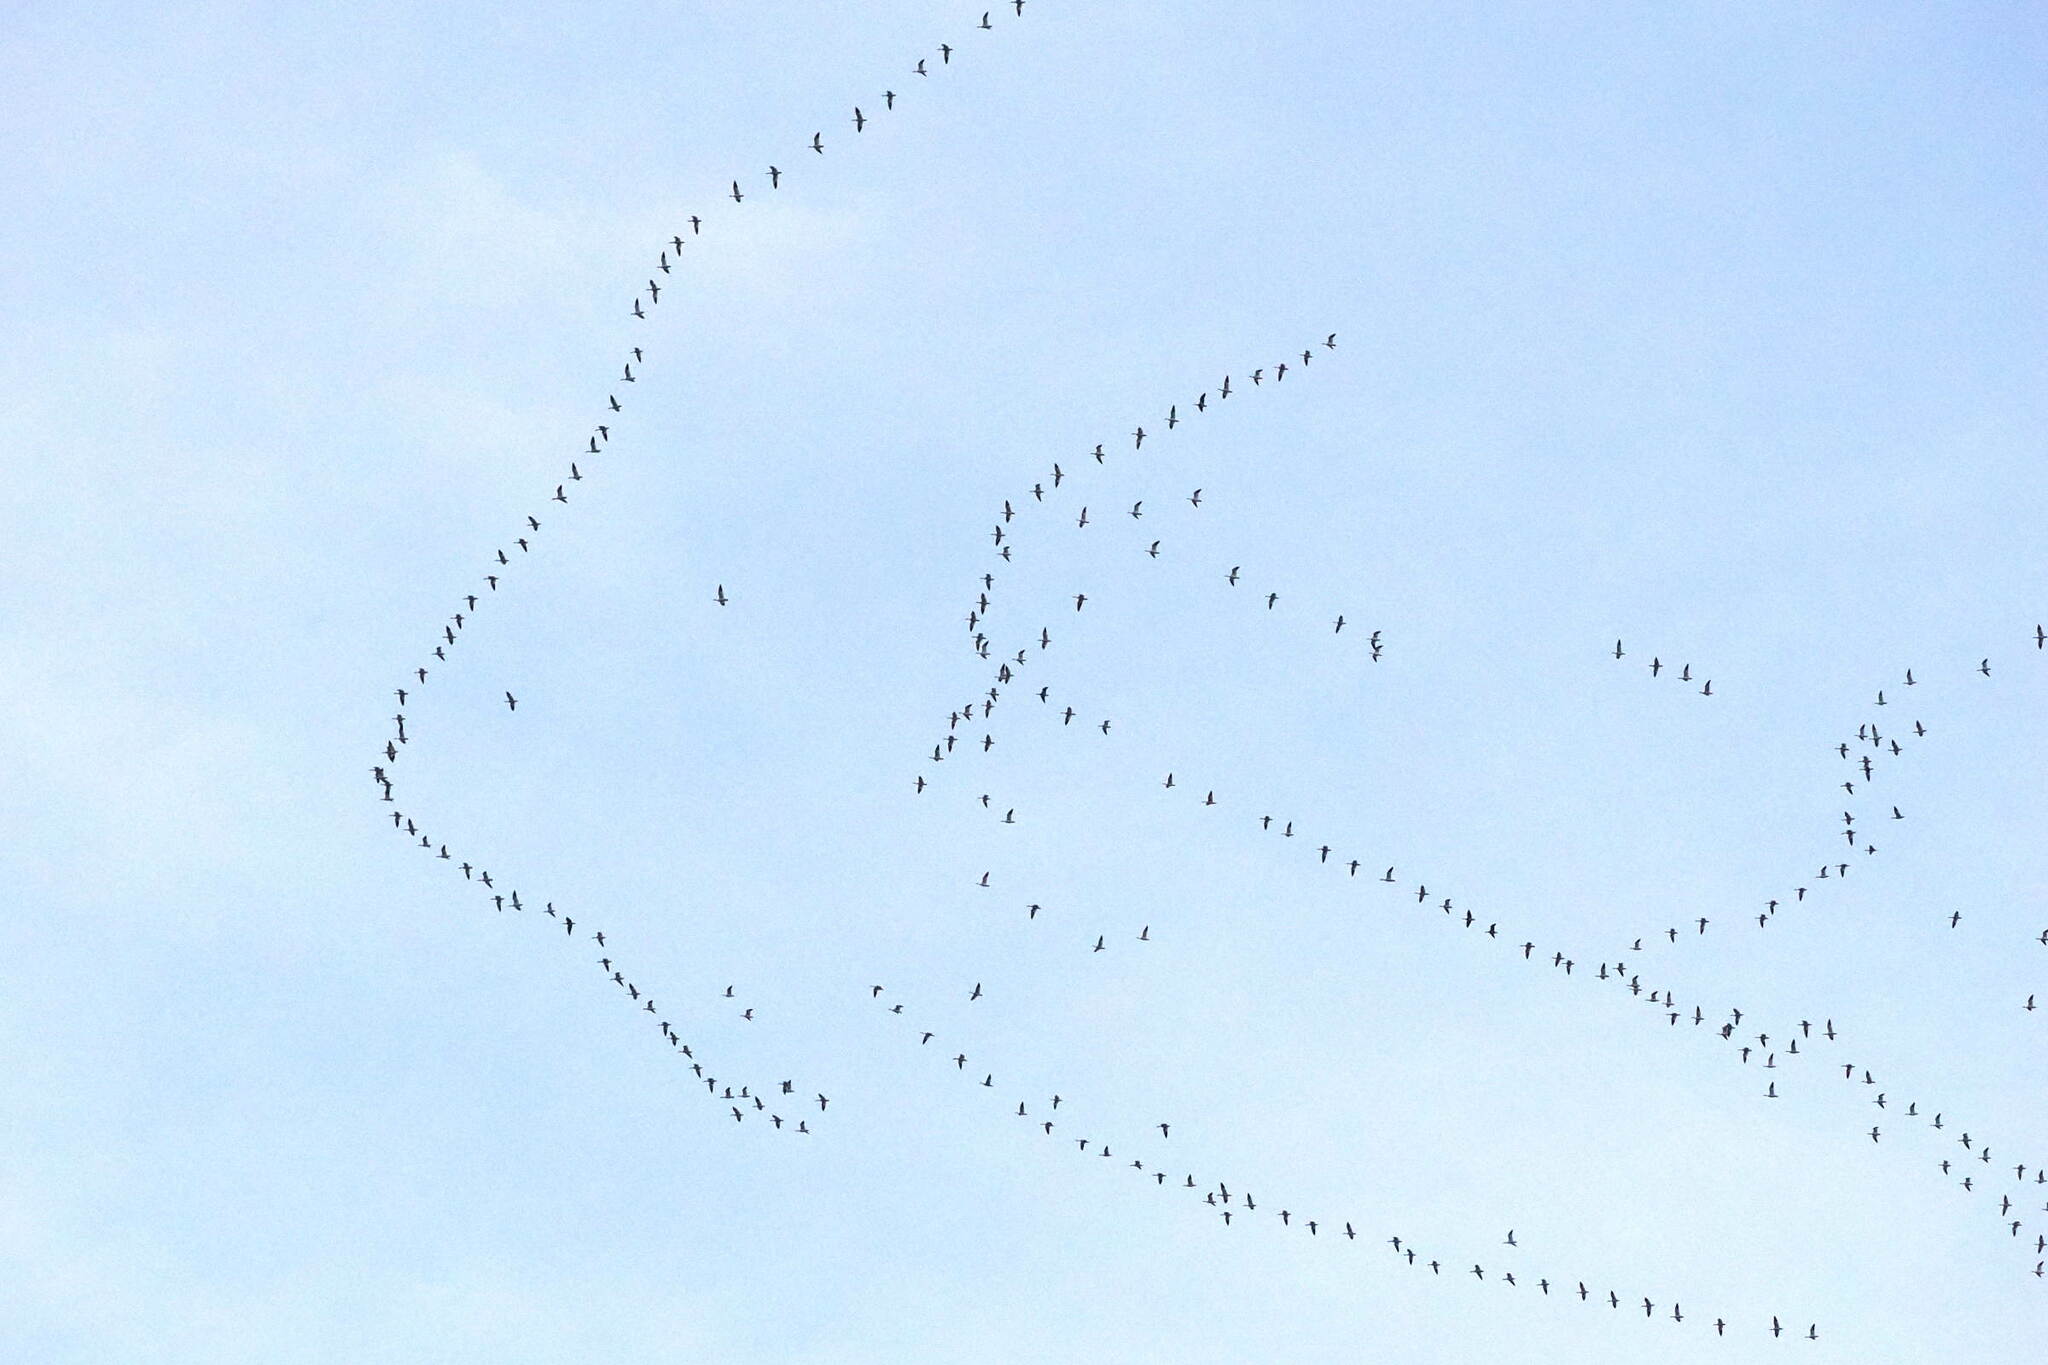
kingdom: Animalia
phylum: Chordata
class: Aves
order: Anseriformes
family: Anatidae
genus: Anser
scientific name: Anser caerulescens
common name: Snow goose
